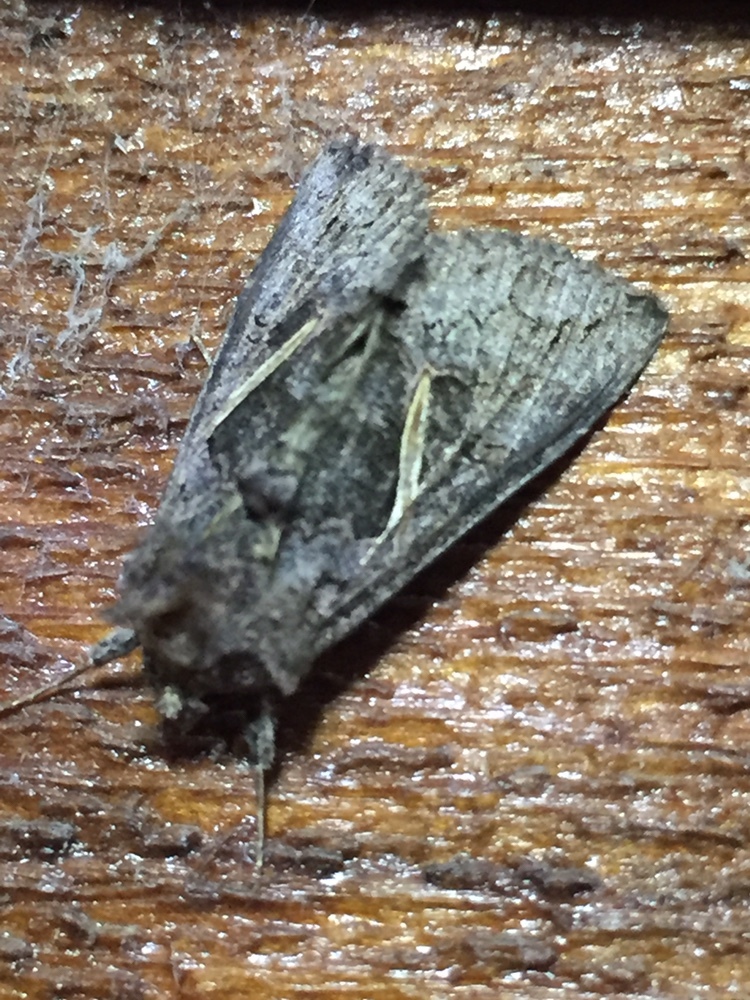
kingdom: Animalia
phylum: Arthropoda
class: Insecta
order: Lepidoptera
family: Noctuidae
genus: Ctenoplusia
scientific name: Ctenoplusia albostriata
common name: Moth
